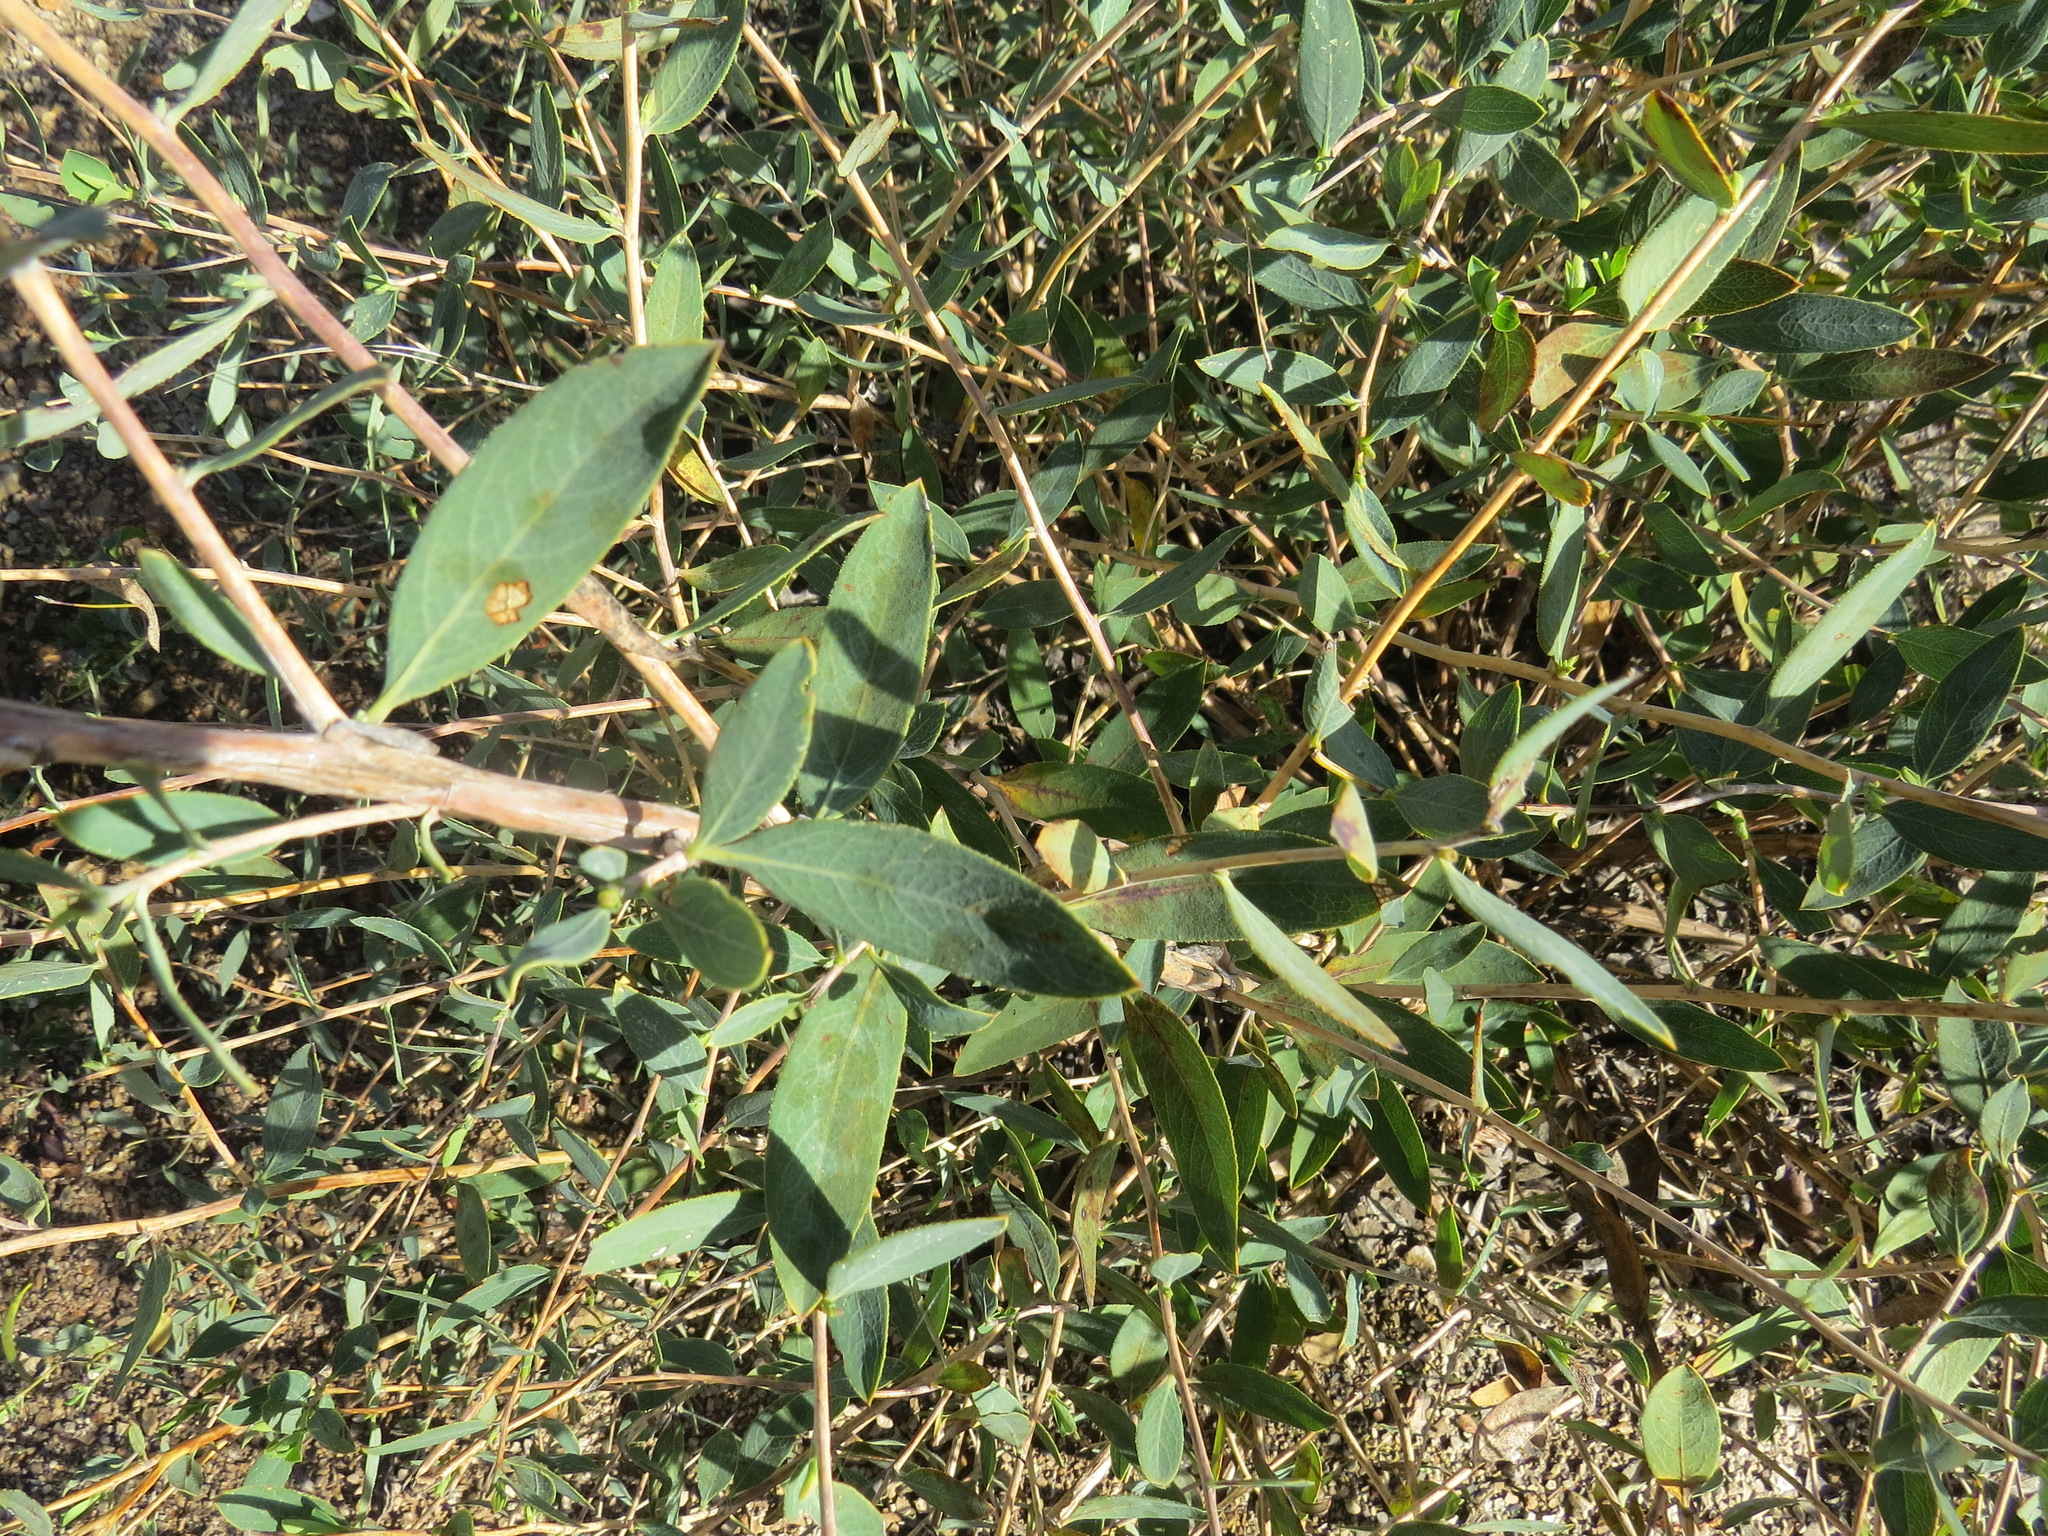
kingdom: Plantae
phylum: Tracheophyta
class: Magnoliopsida
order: Ranunculales
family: Papaveraceae
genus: Dendromecon
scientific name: Dendromecon rigida
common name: Tree poppy
